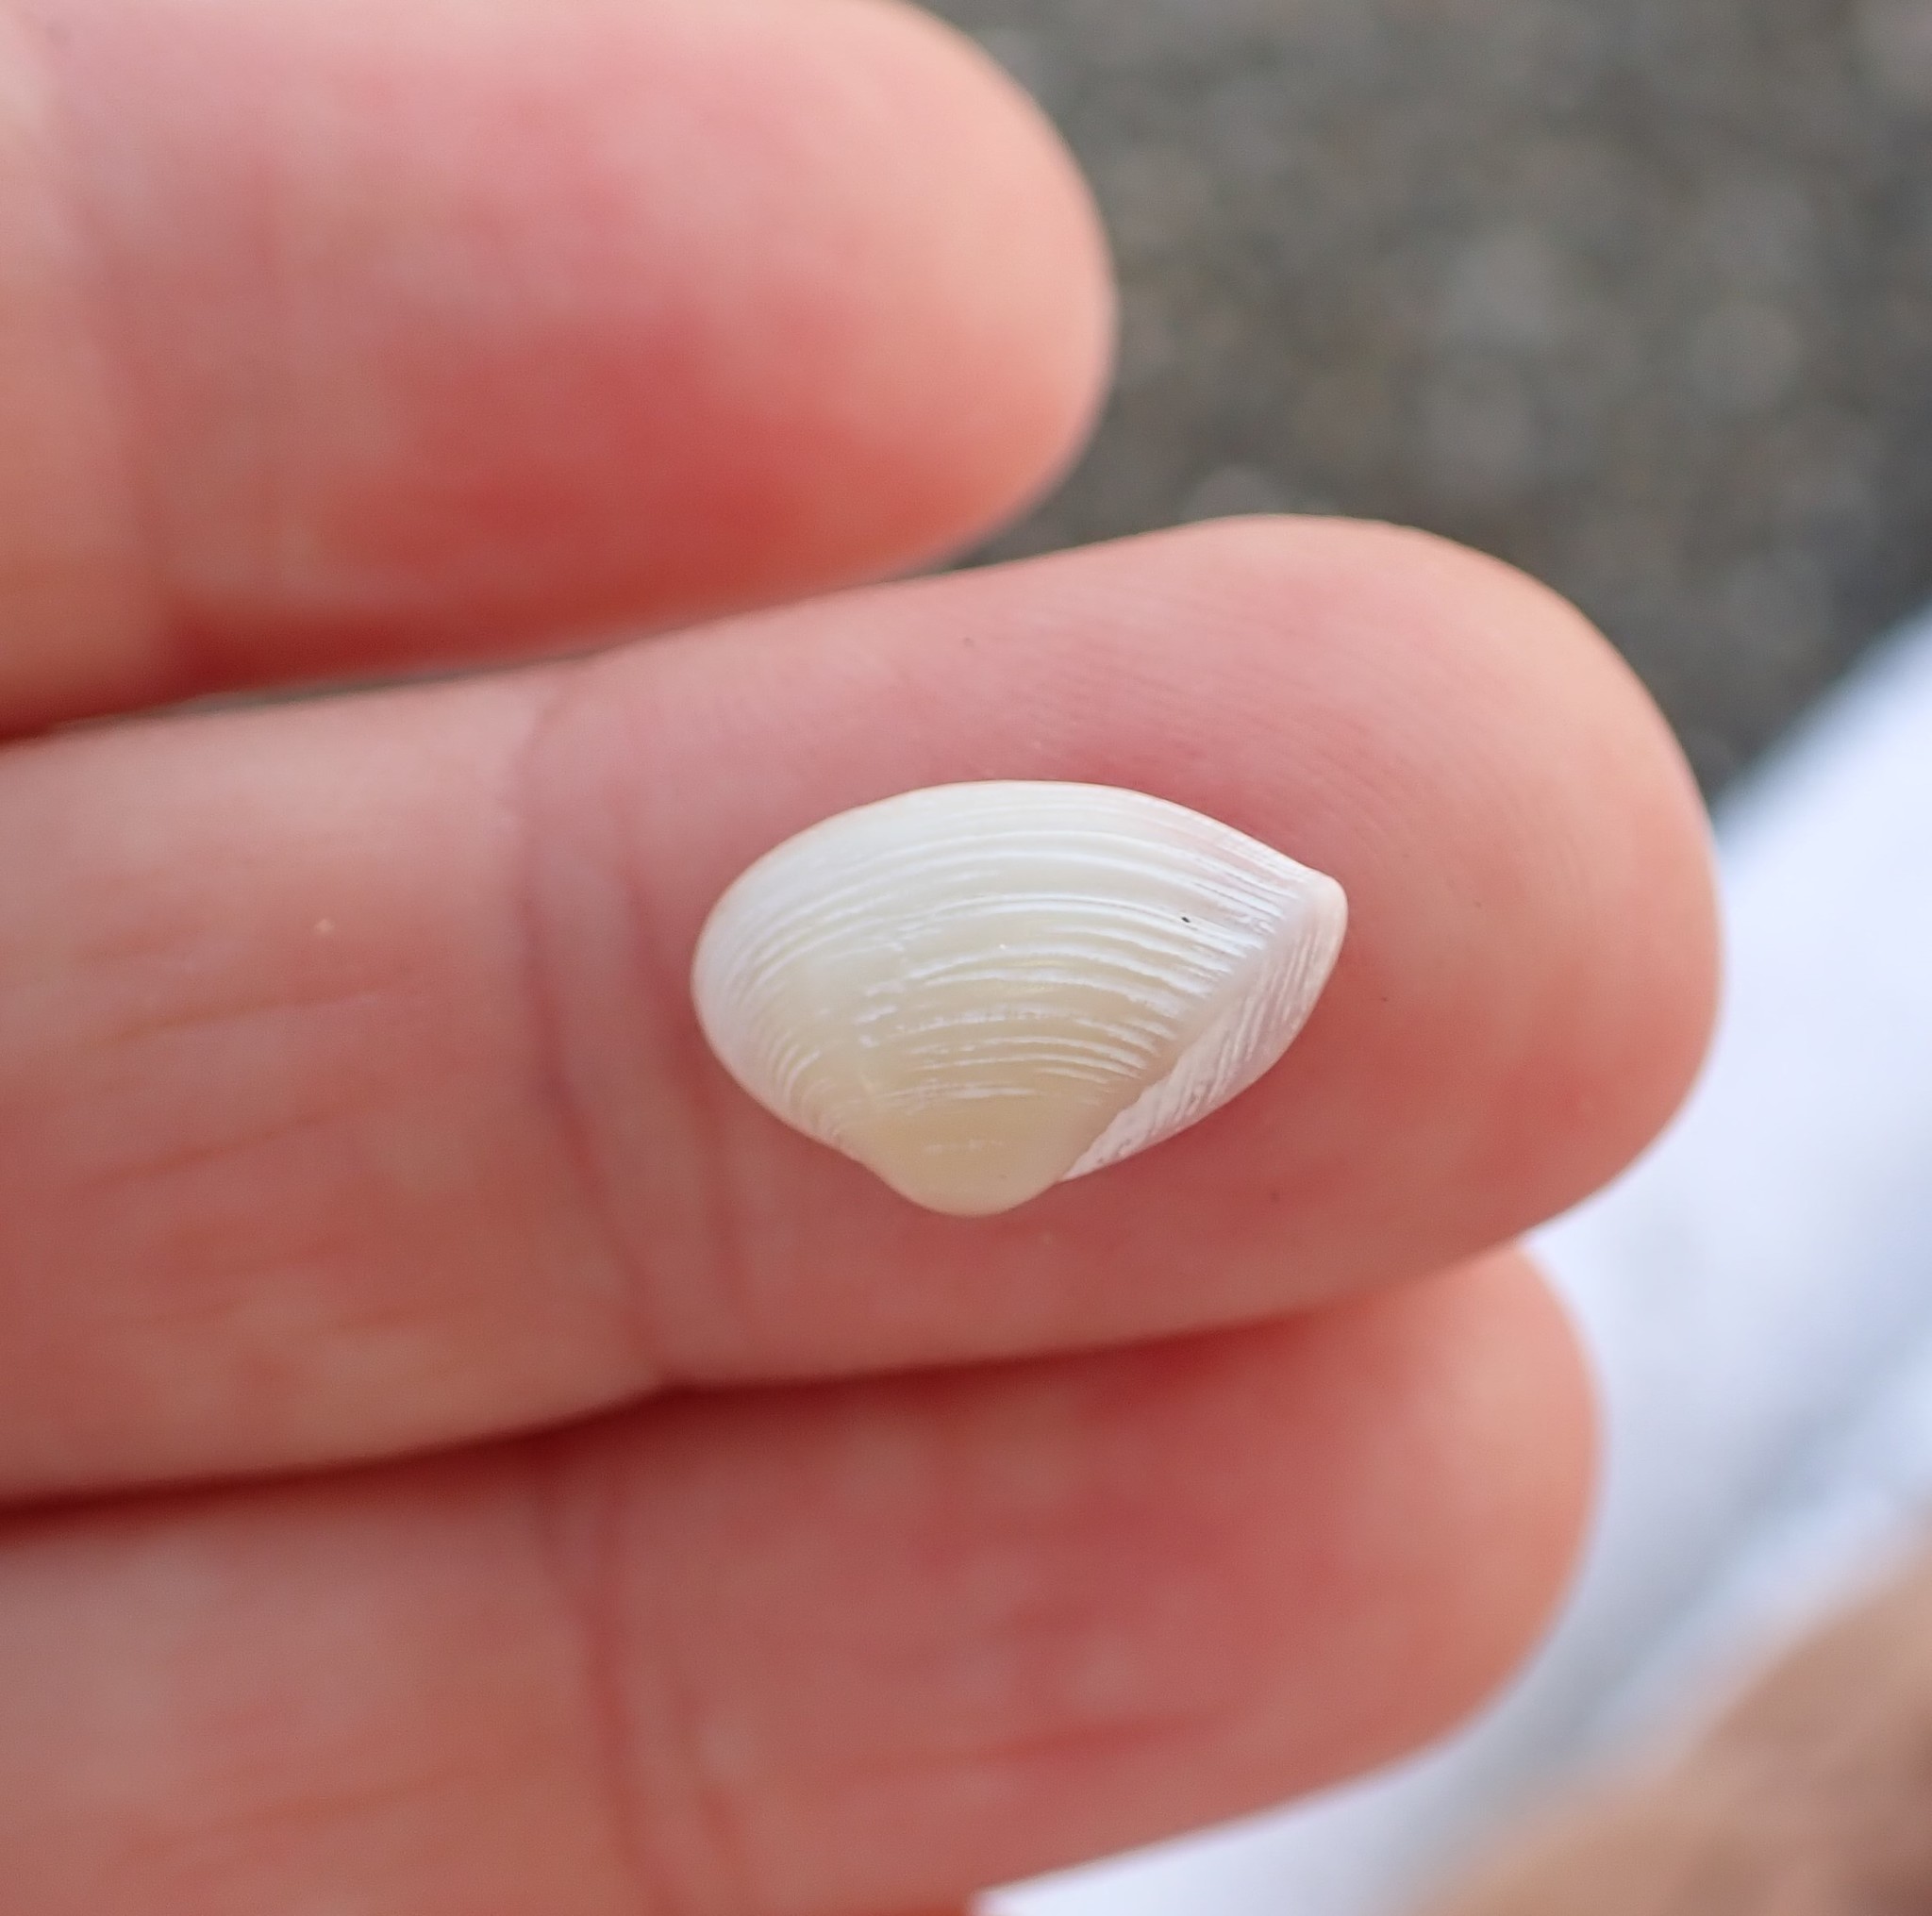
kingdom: Animalia
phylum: Mollusca
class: Bivalvia
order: Myida
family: Corbulidae
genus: Corbula
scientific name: Corbula zelandica
